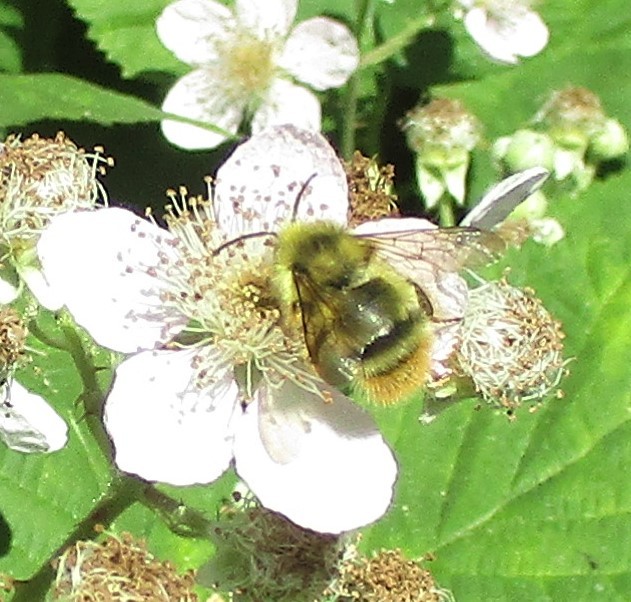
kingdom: Animalia
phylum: Arthropoda
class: Insecta
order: Hymenoptera
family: Apidae
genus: Bombus
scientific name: Bombus mixtus
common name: Fuzzy-horned bumble bee
